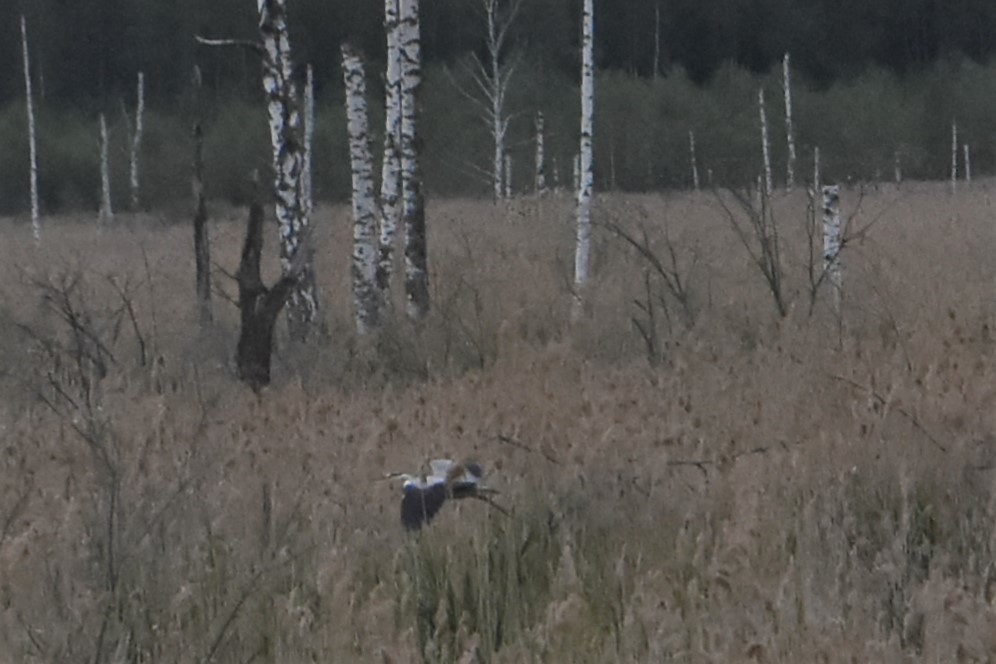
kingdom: Animalia
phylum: Chordata
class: Aves
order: Pelecaniformes
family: Ardeidae
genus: Ardea
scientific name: Ardea cinerea
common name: Grey heron
